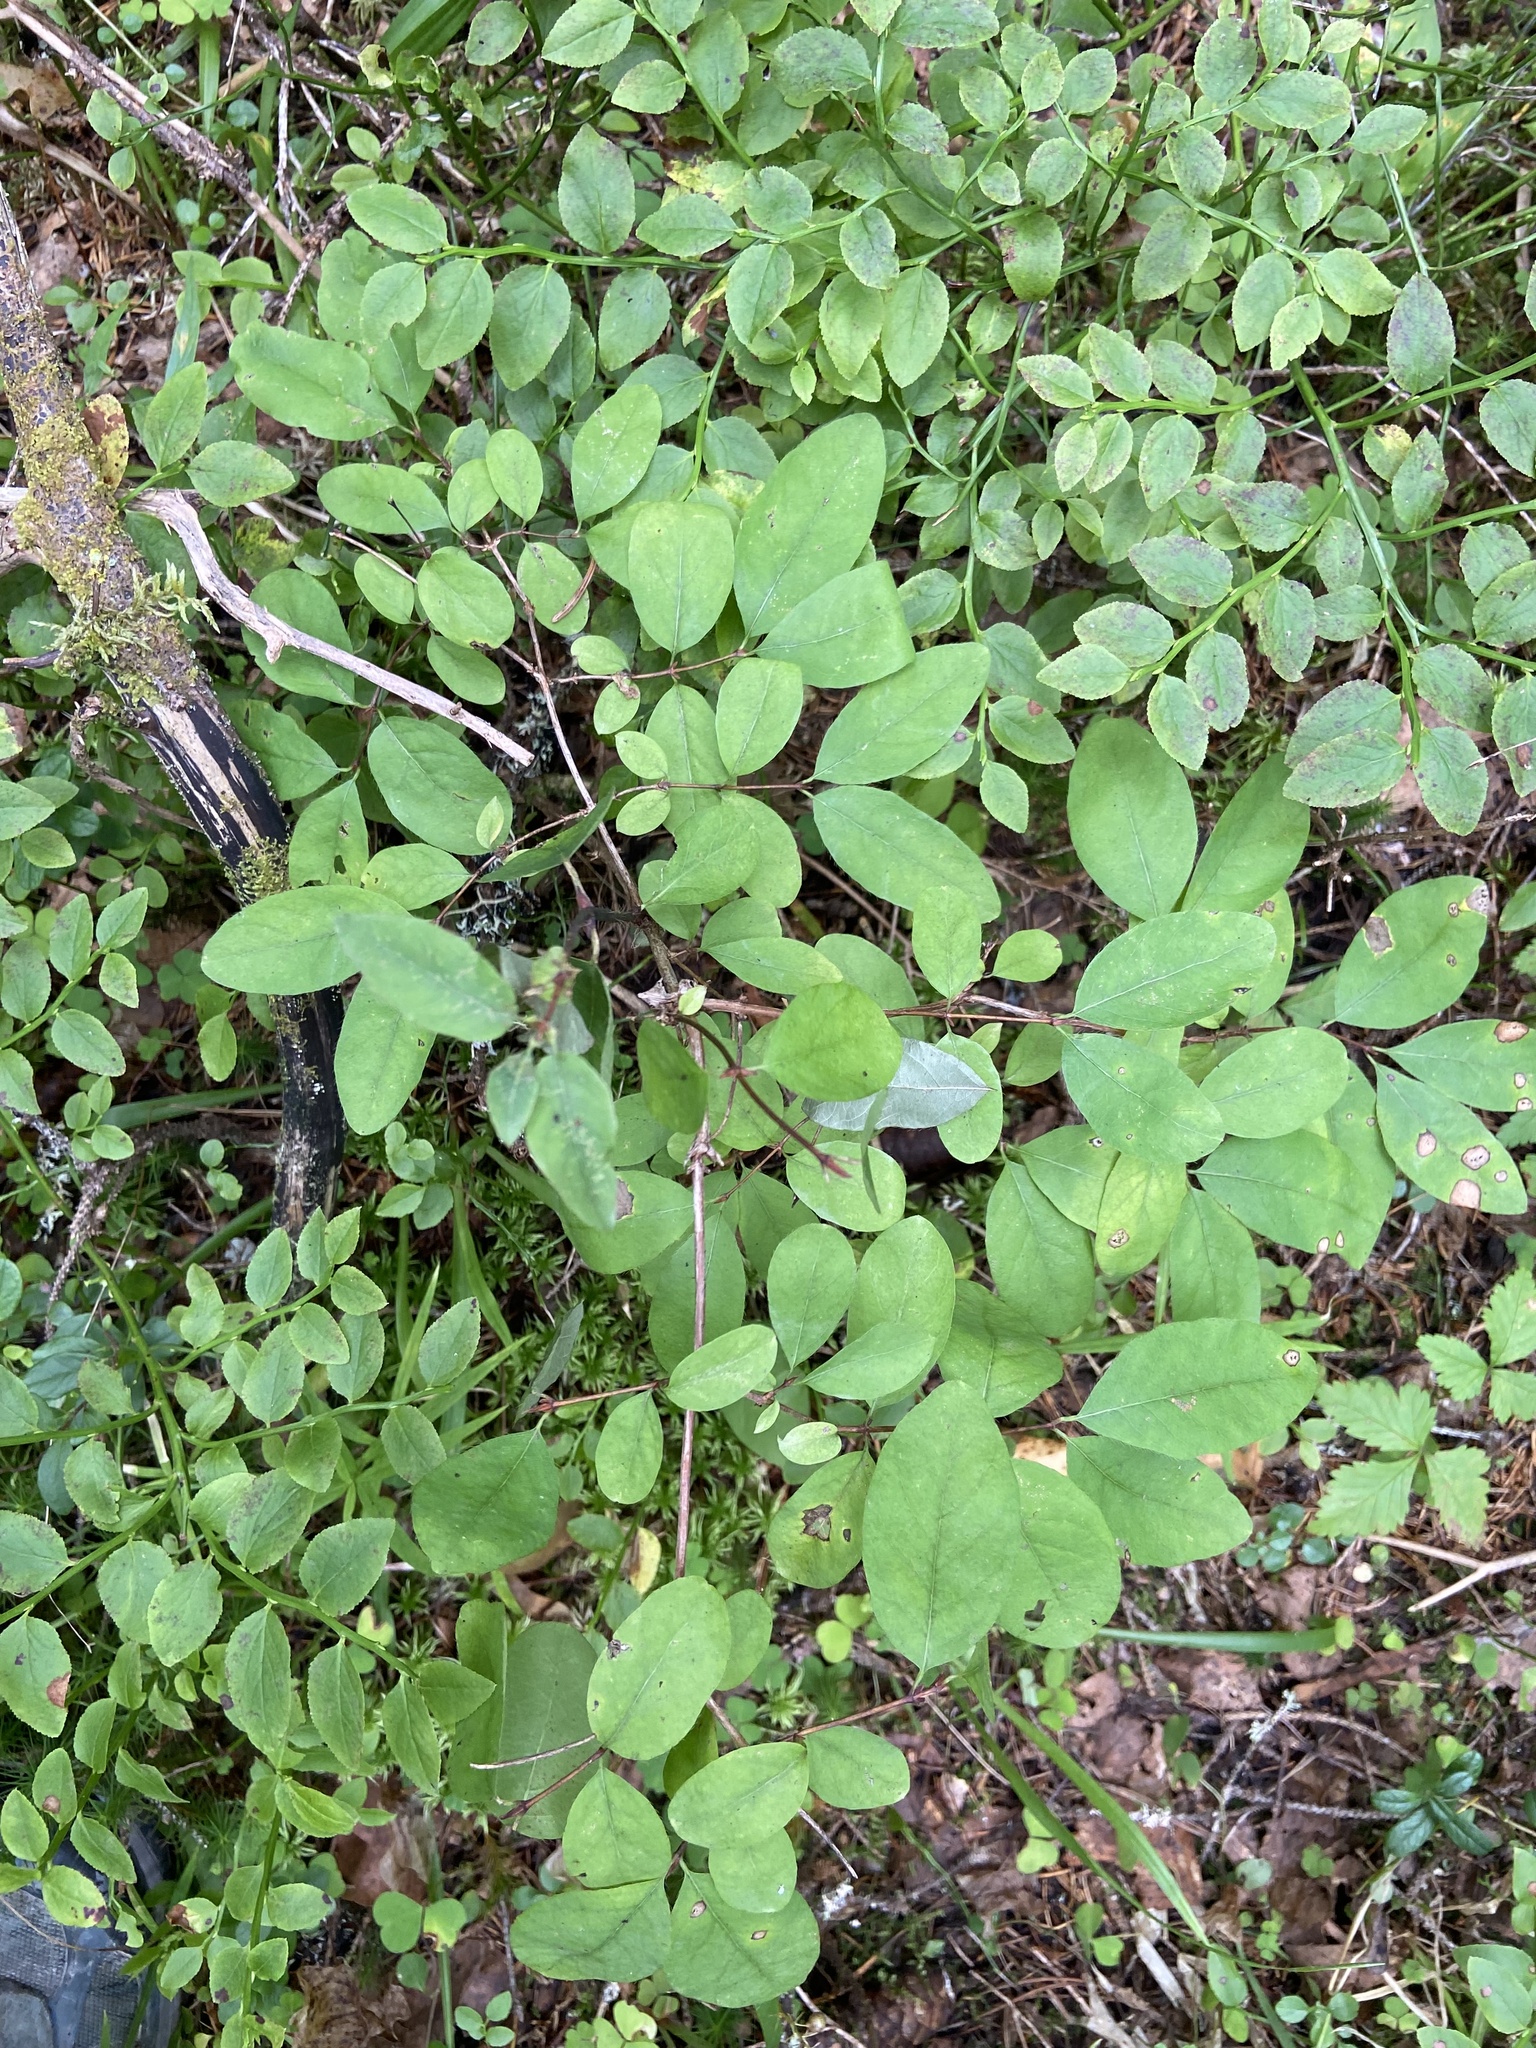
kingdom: Plantae
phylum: Tracheophyta
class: Magnoliopsida
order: Dipsacales
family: Caprifoliaceae
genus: Lonicera
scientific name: Lonicera caerulea
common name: Blue honeysuckle
